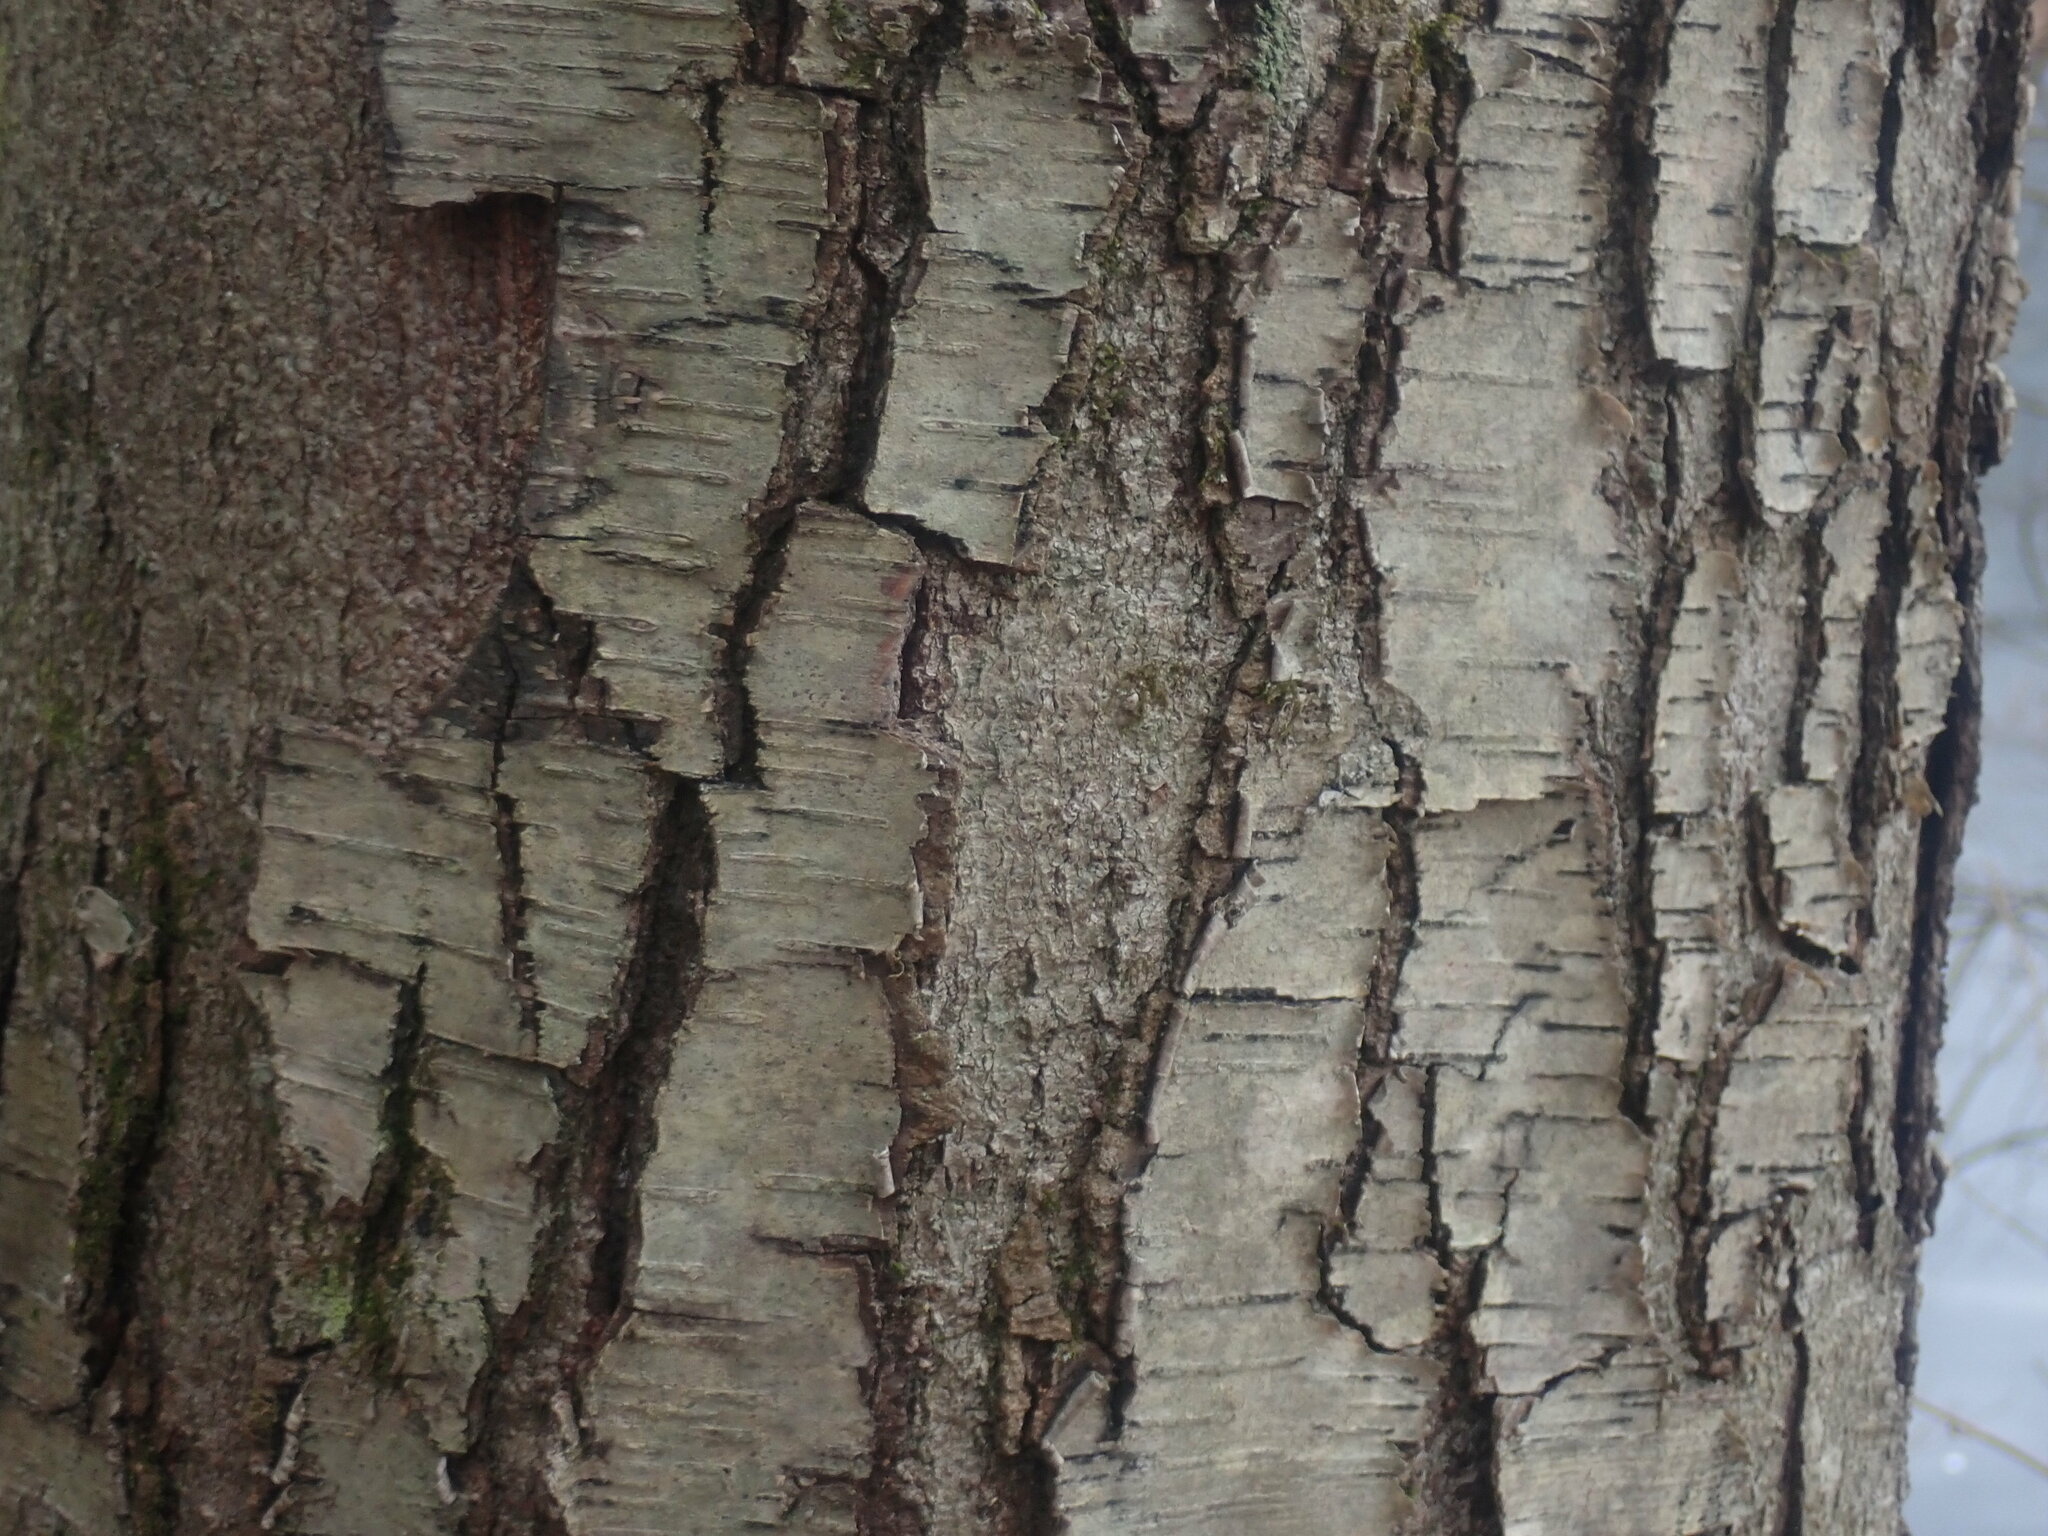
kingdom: Plantae
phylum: Tracheophyta
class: Magnoliopsida
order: Fagales
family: Betulaceae
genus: Betula
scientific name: Betula lenta
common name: Black birch
